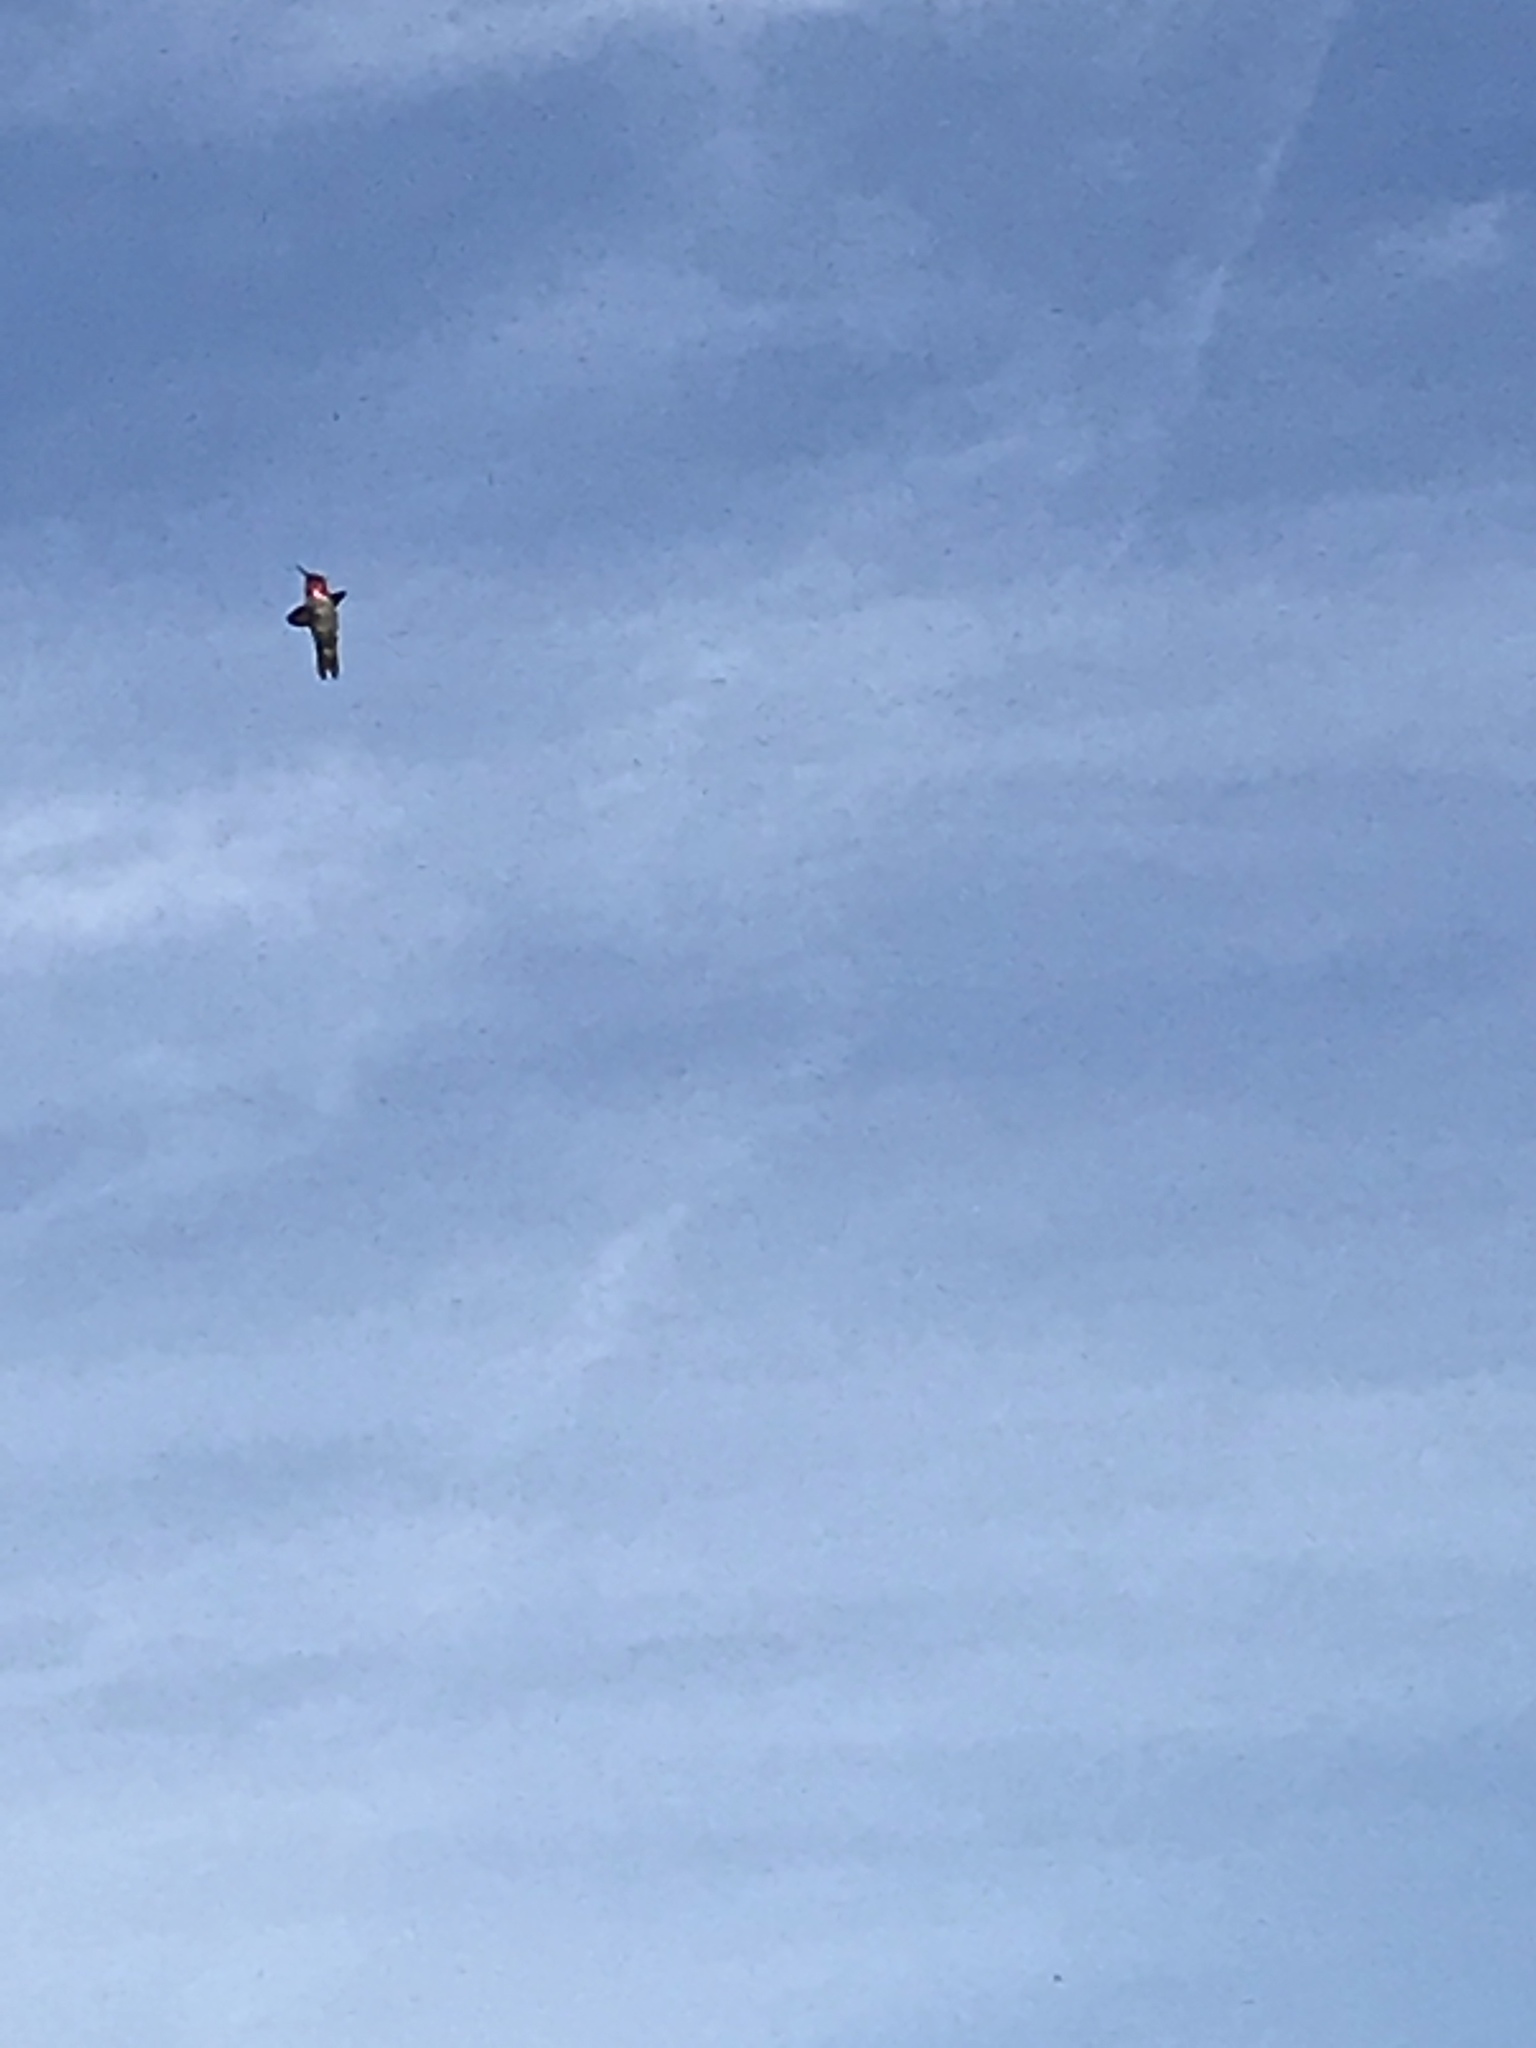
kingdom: Animalia
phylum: Chordata
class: Aves
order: Apodiformes
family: Trochilidae
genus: Calypte
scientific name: Calypte anna
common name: Anna's hummingbird
